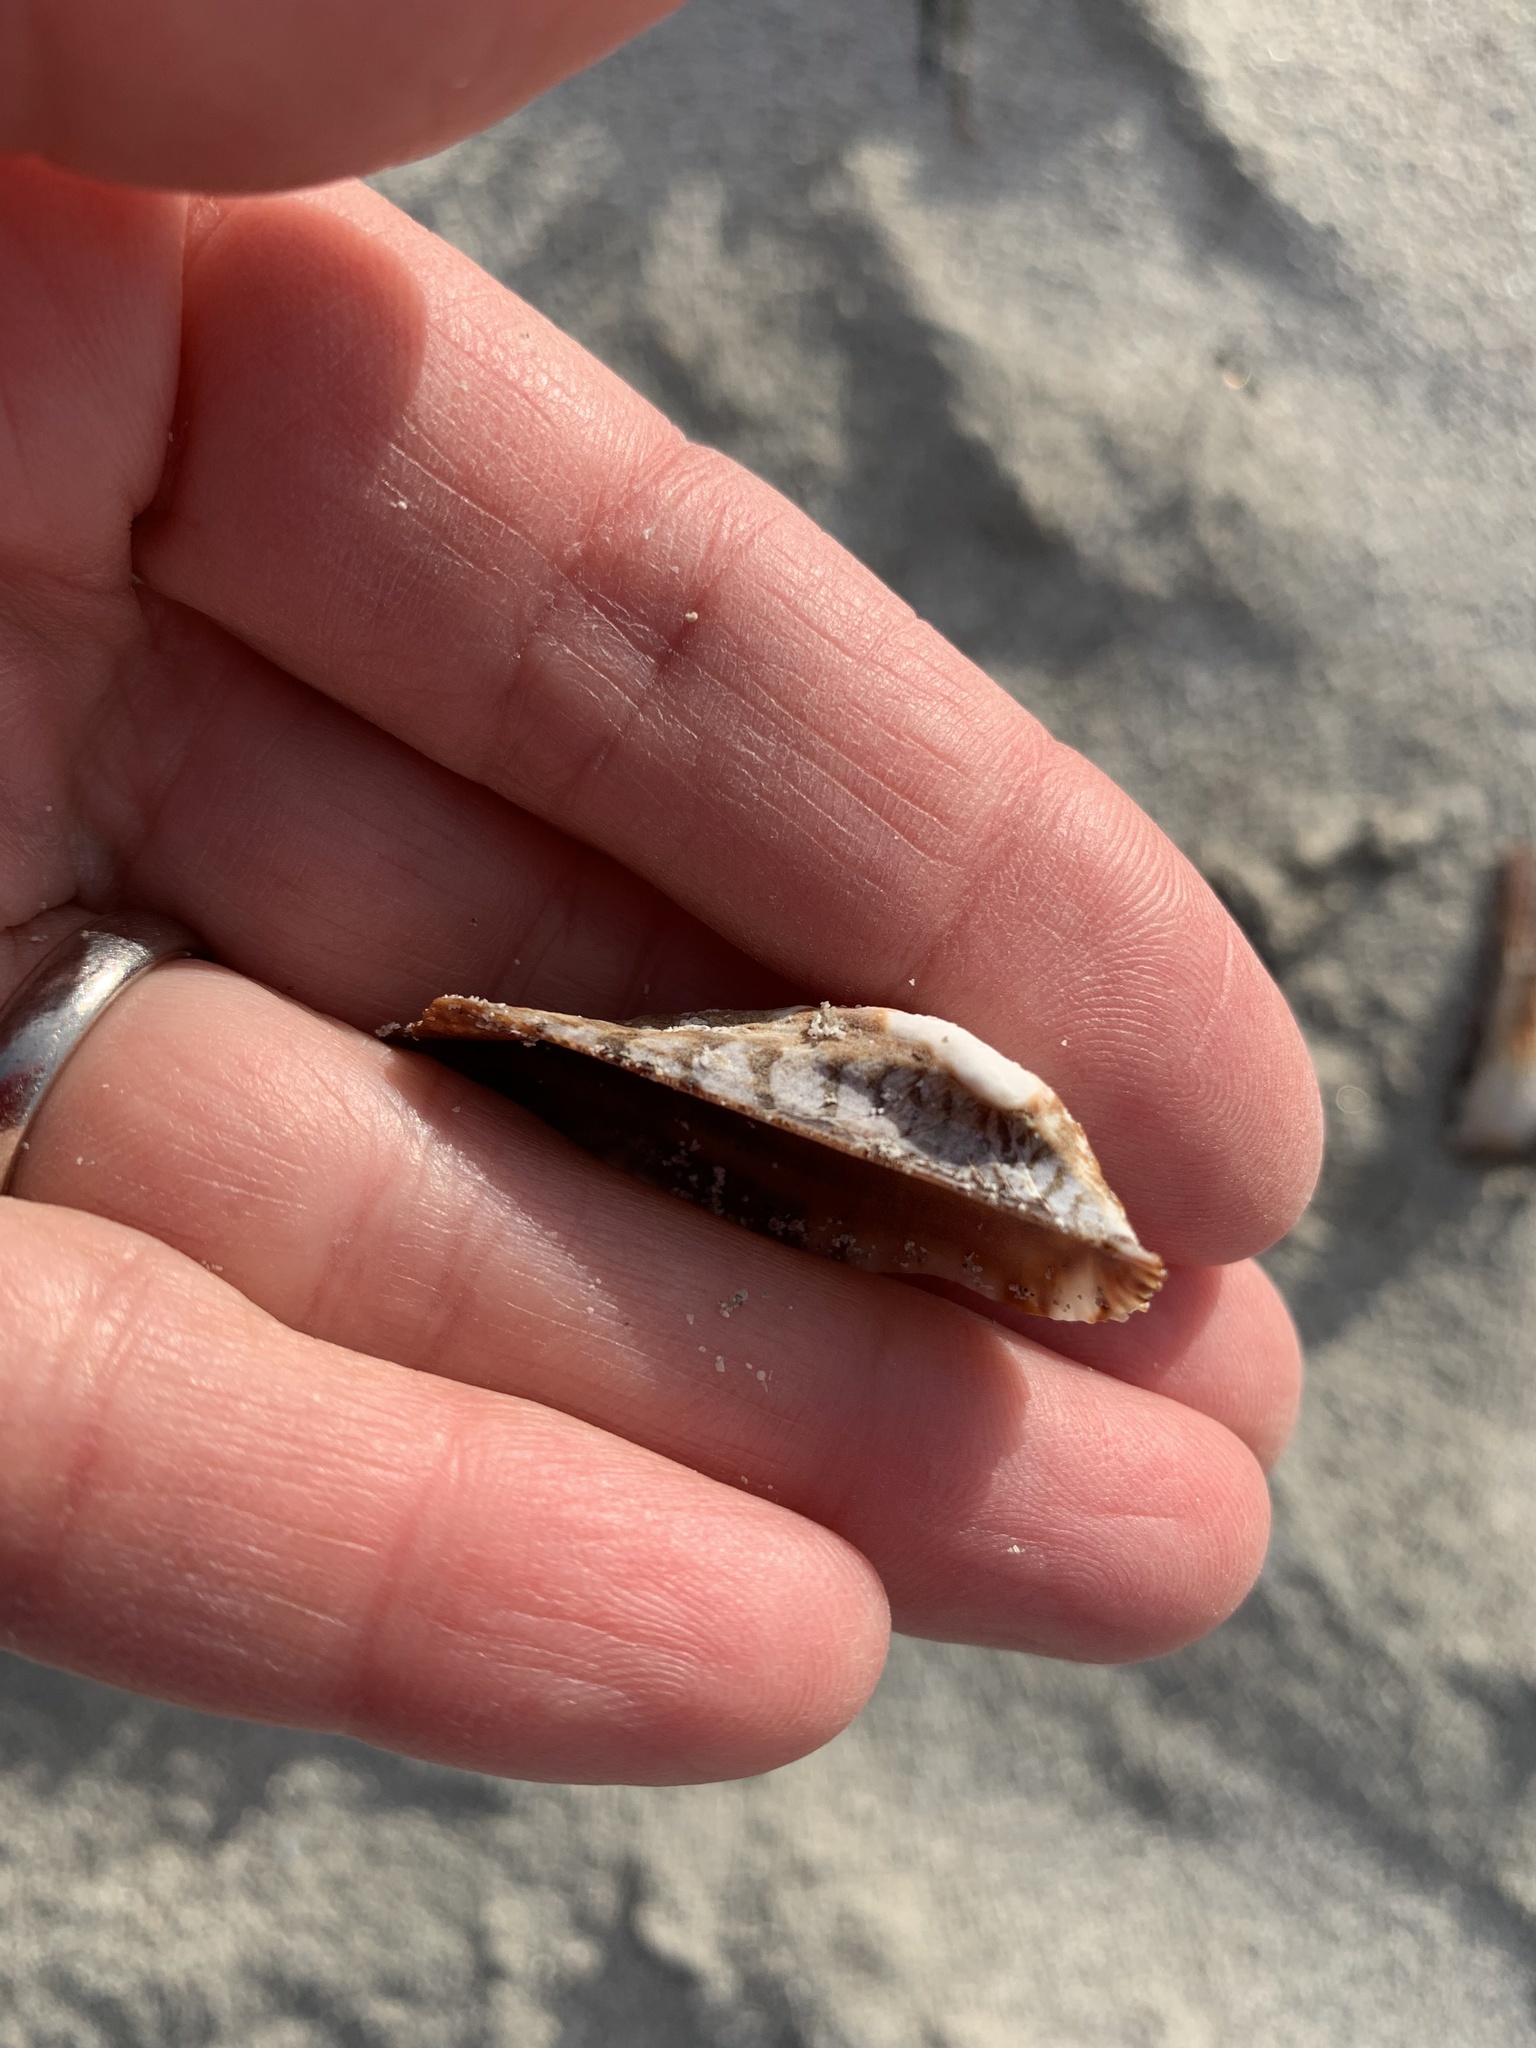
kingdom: Animalia
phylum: Mollusca
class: Bivalvia
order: Arcida
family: Arcidae
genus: Arca
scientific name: Arca noae
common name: Noah's arch
